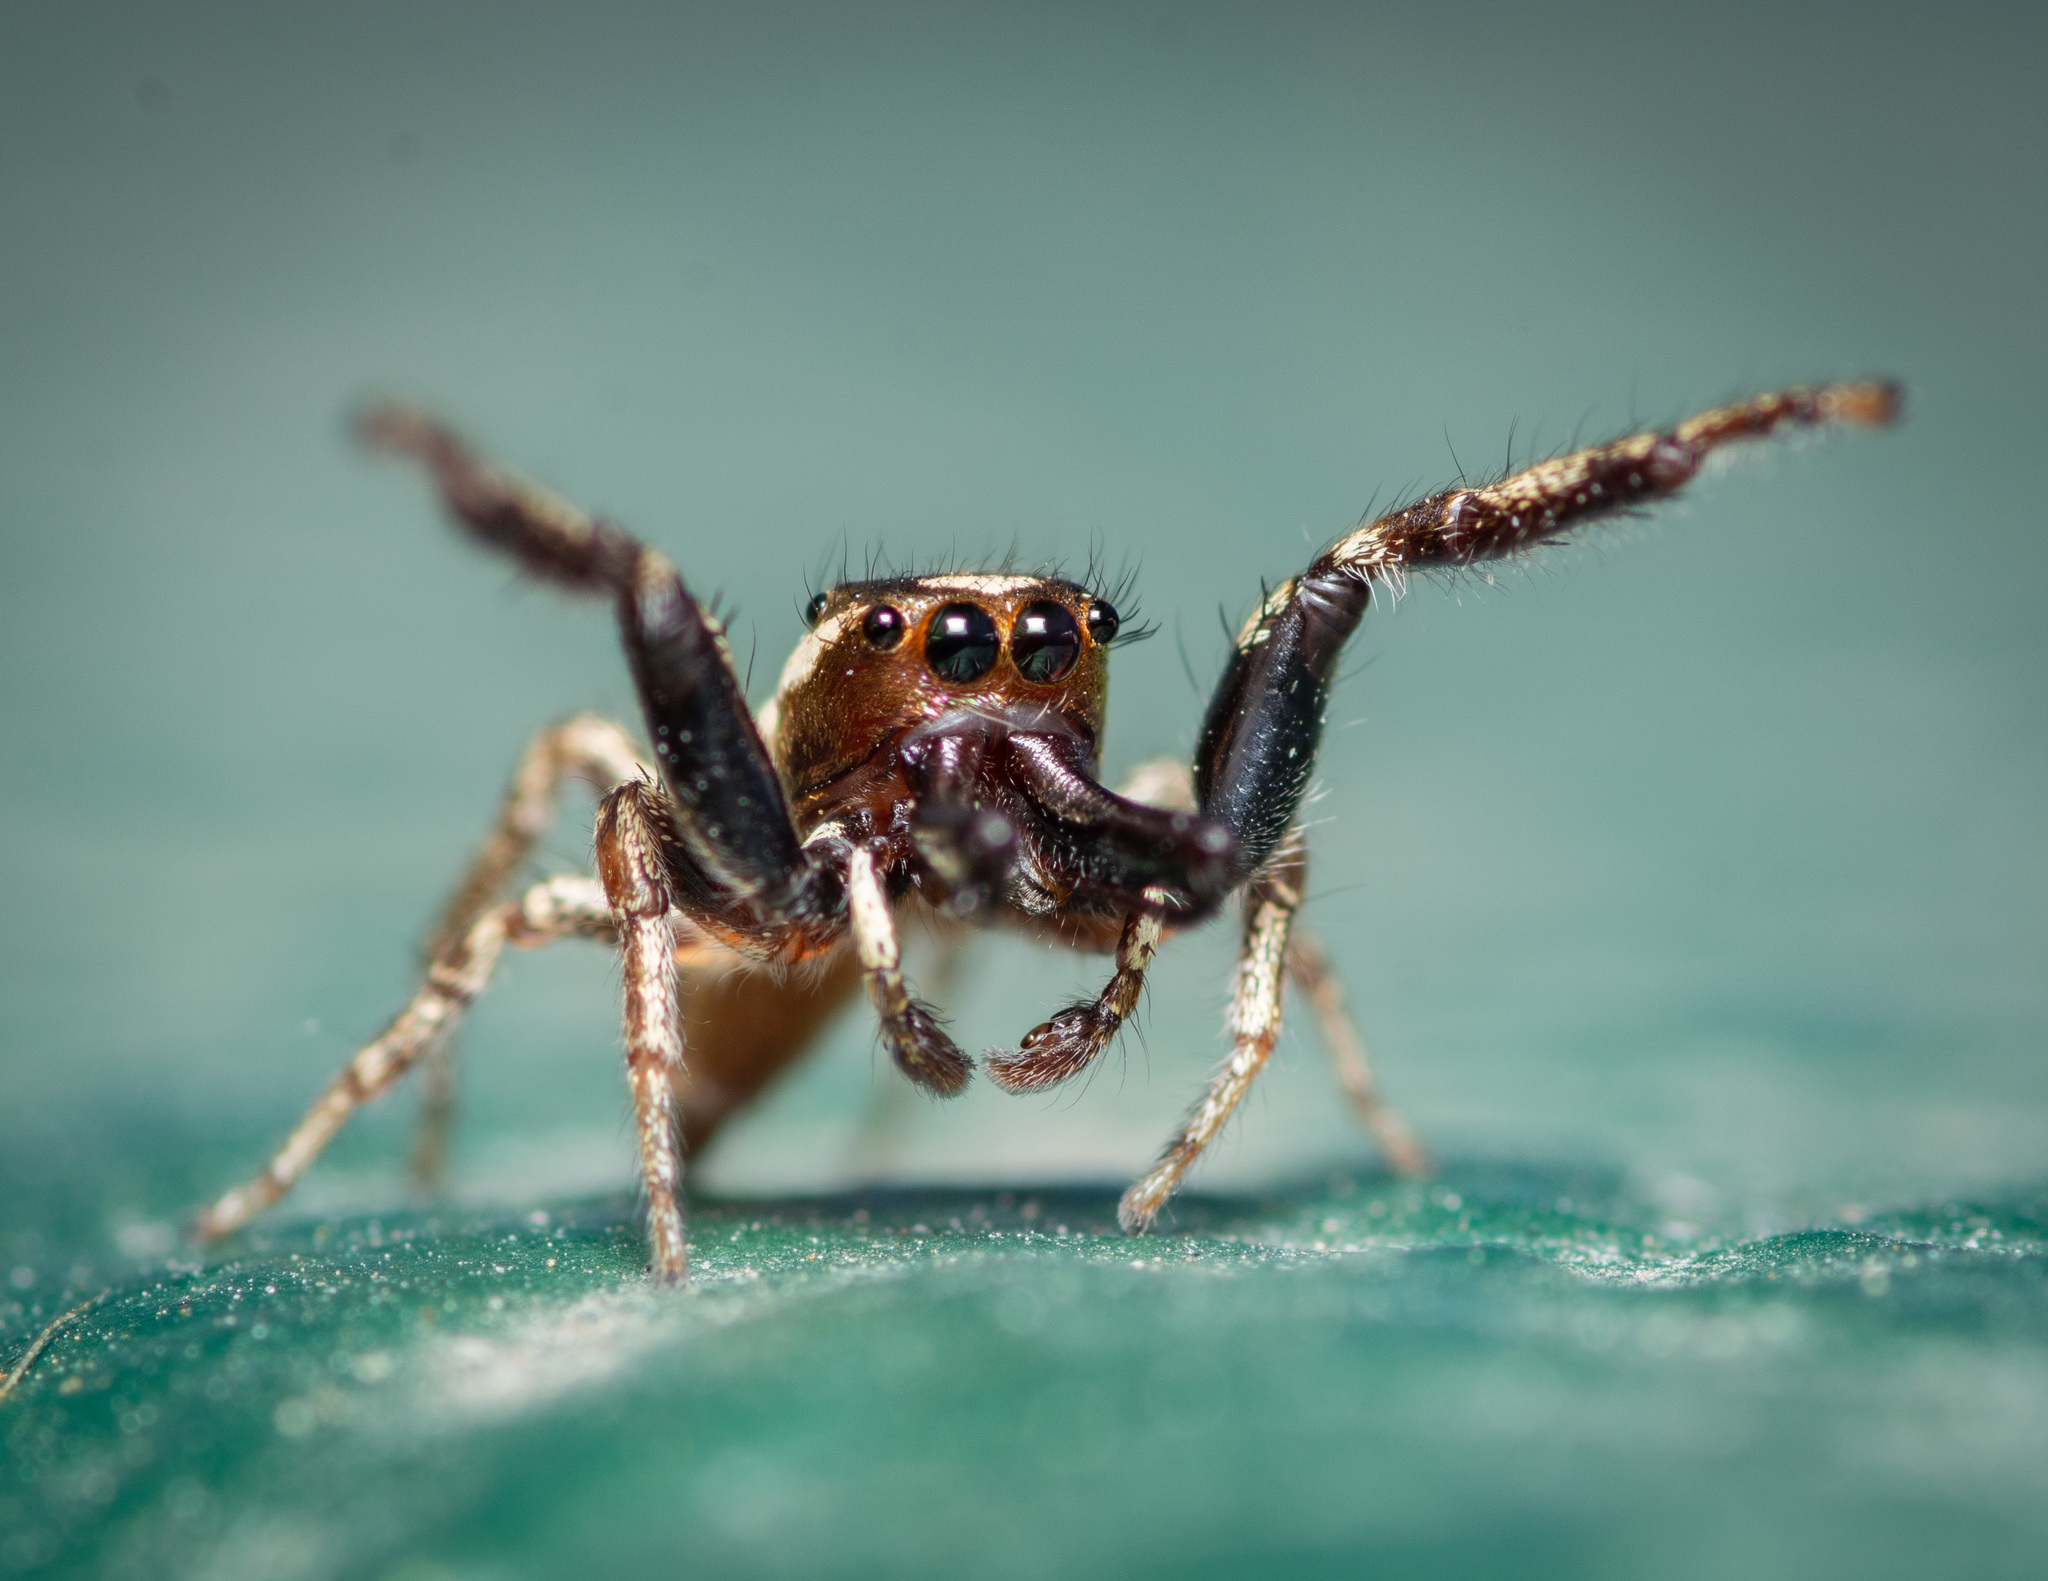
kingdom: Animalia
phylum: Arthropoda
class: Arachnida
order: Araneae
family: Salticidae
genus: Bagheera
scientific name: Bagheera prosper
